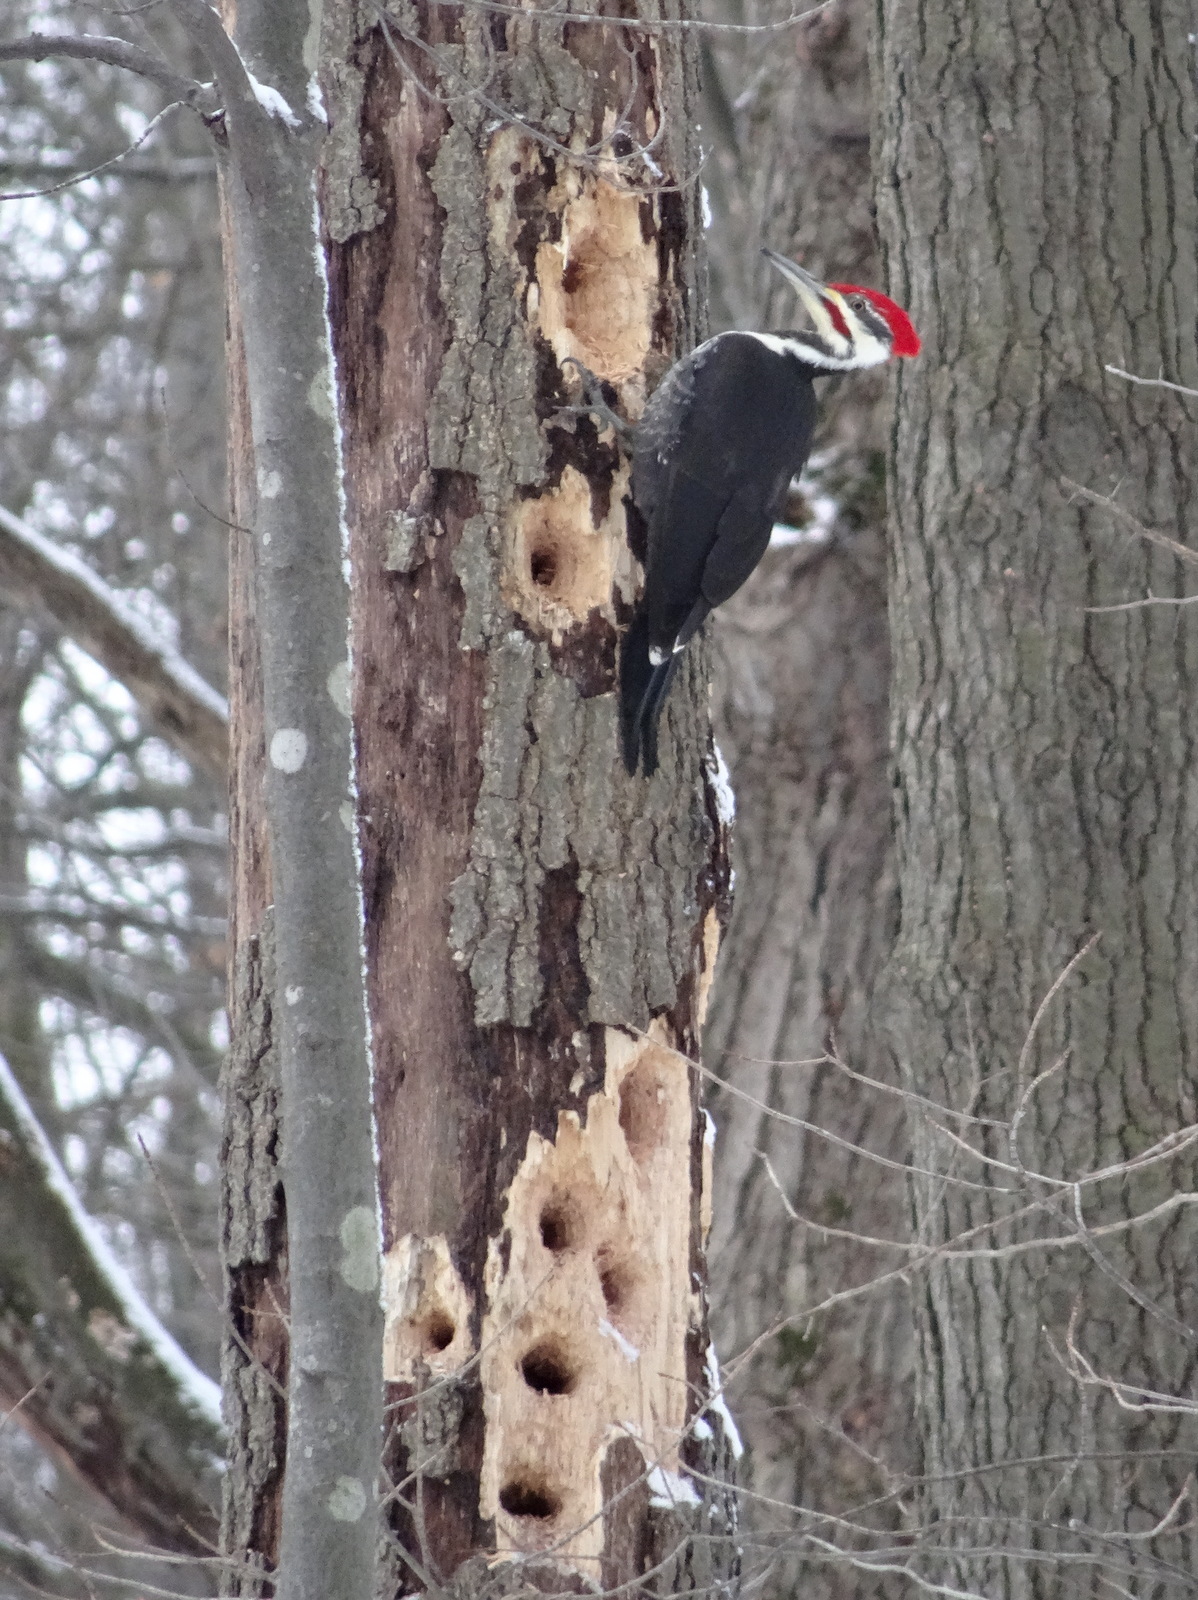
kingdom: Animalia
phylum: Chordata
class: Aves
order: Piciformes
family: Picidae
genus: Dryocopus
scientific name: Dryocopus pileatus
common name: Pileated woodpecker
